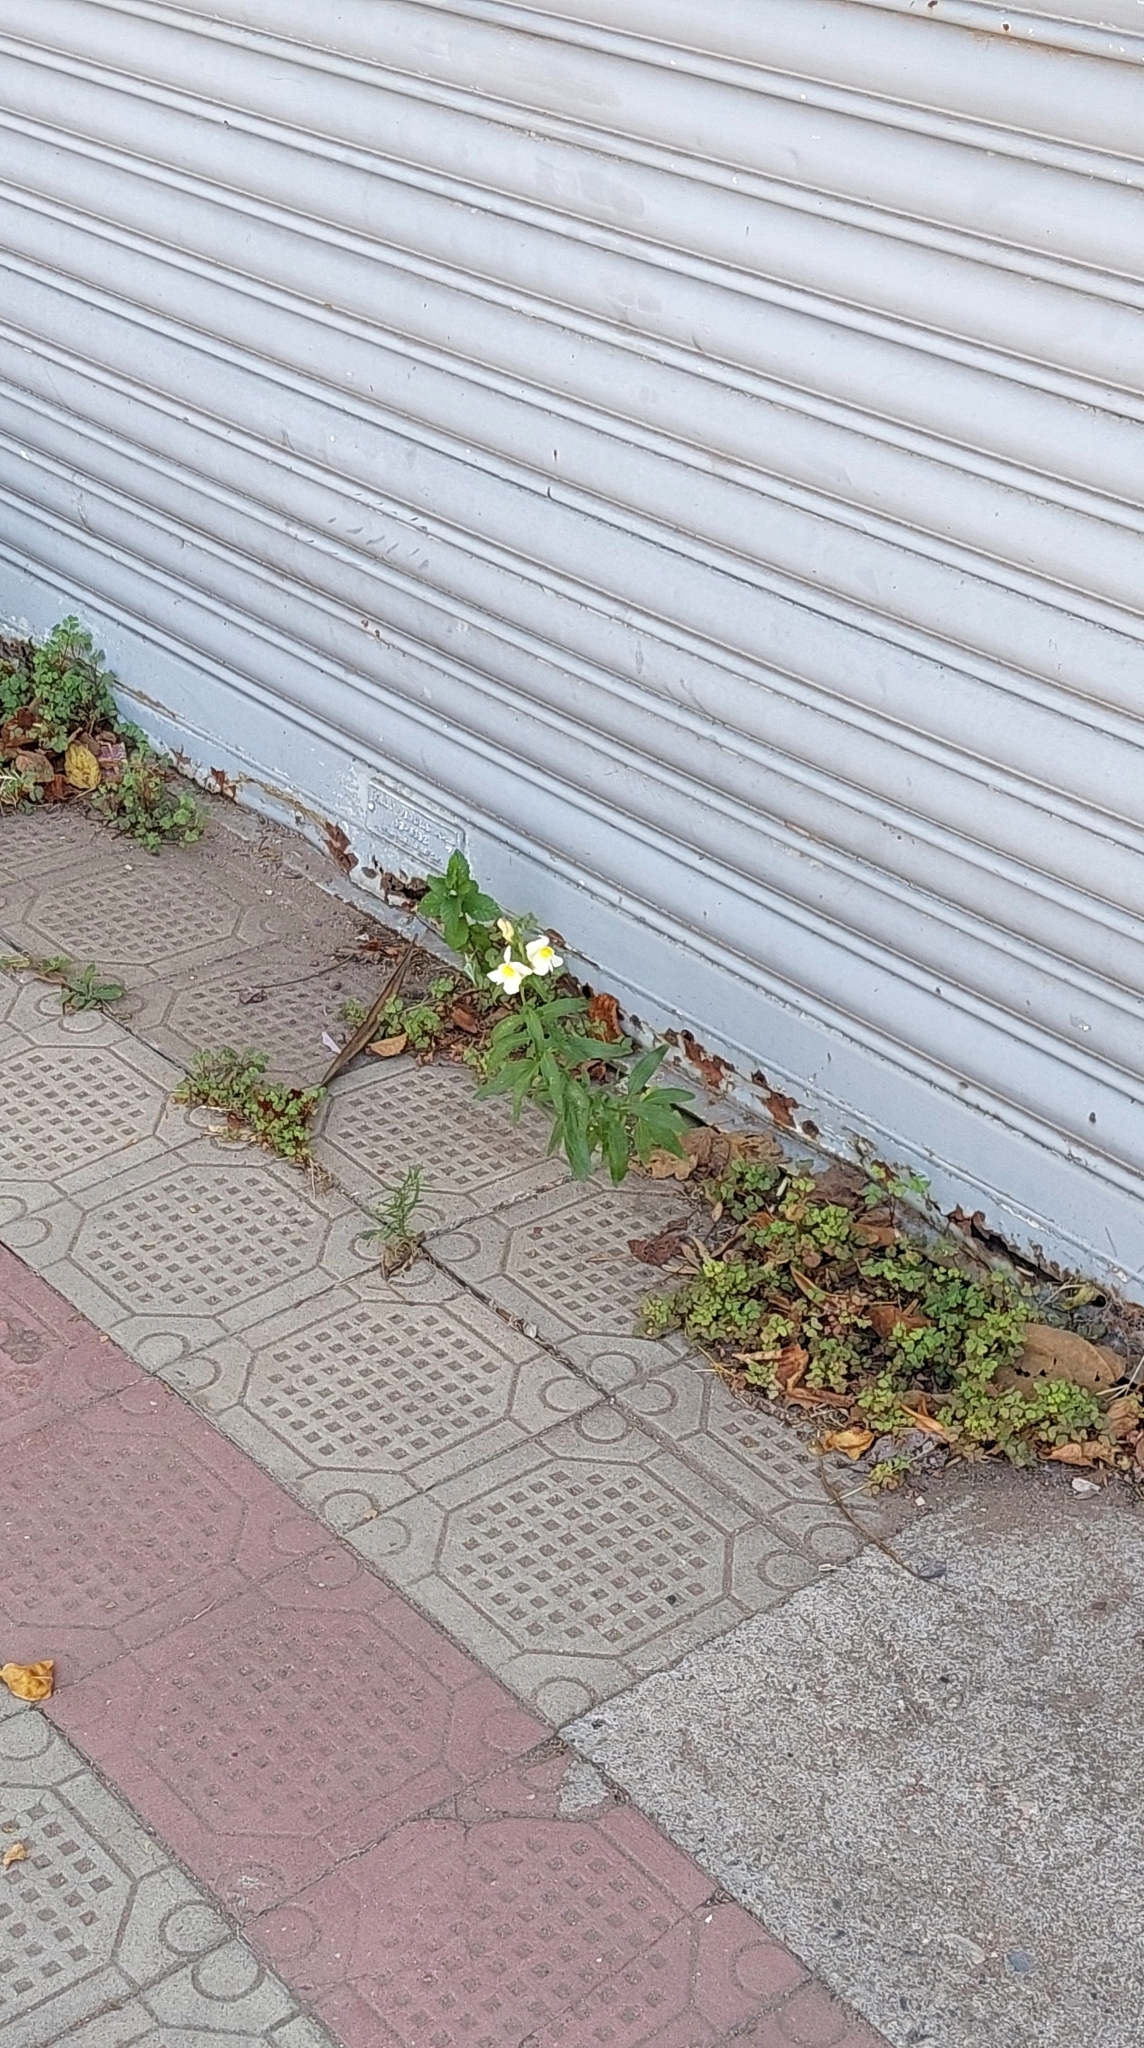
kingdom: Plantae
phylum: Tracheophyta
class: Magnoliopsida
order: Lamiales
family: Plantaginaceae
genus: Antirrhinum
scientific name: Antirrhinum majus
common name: Snapdragon
